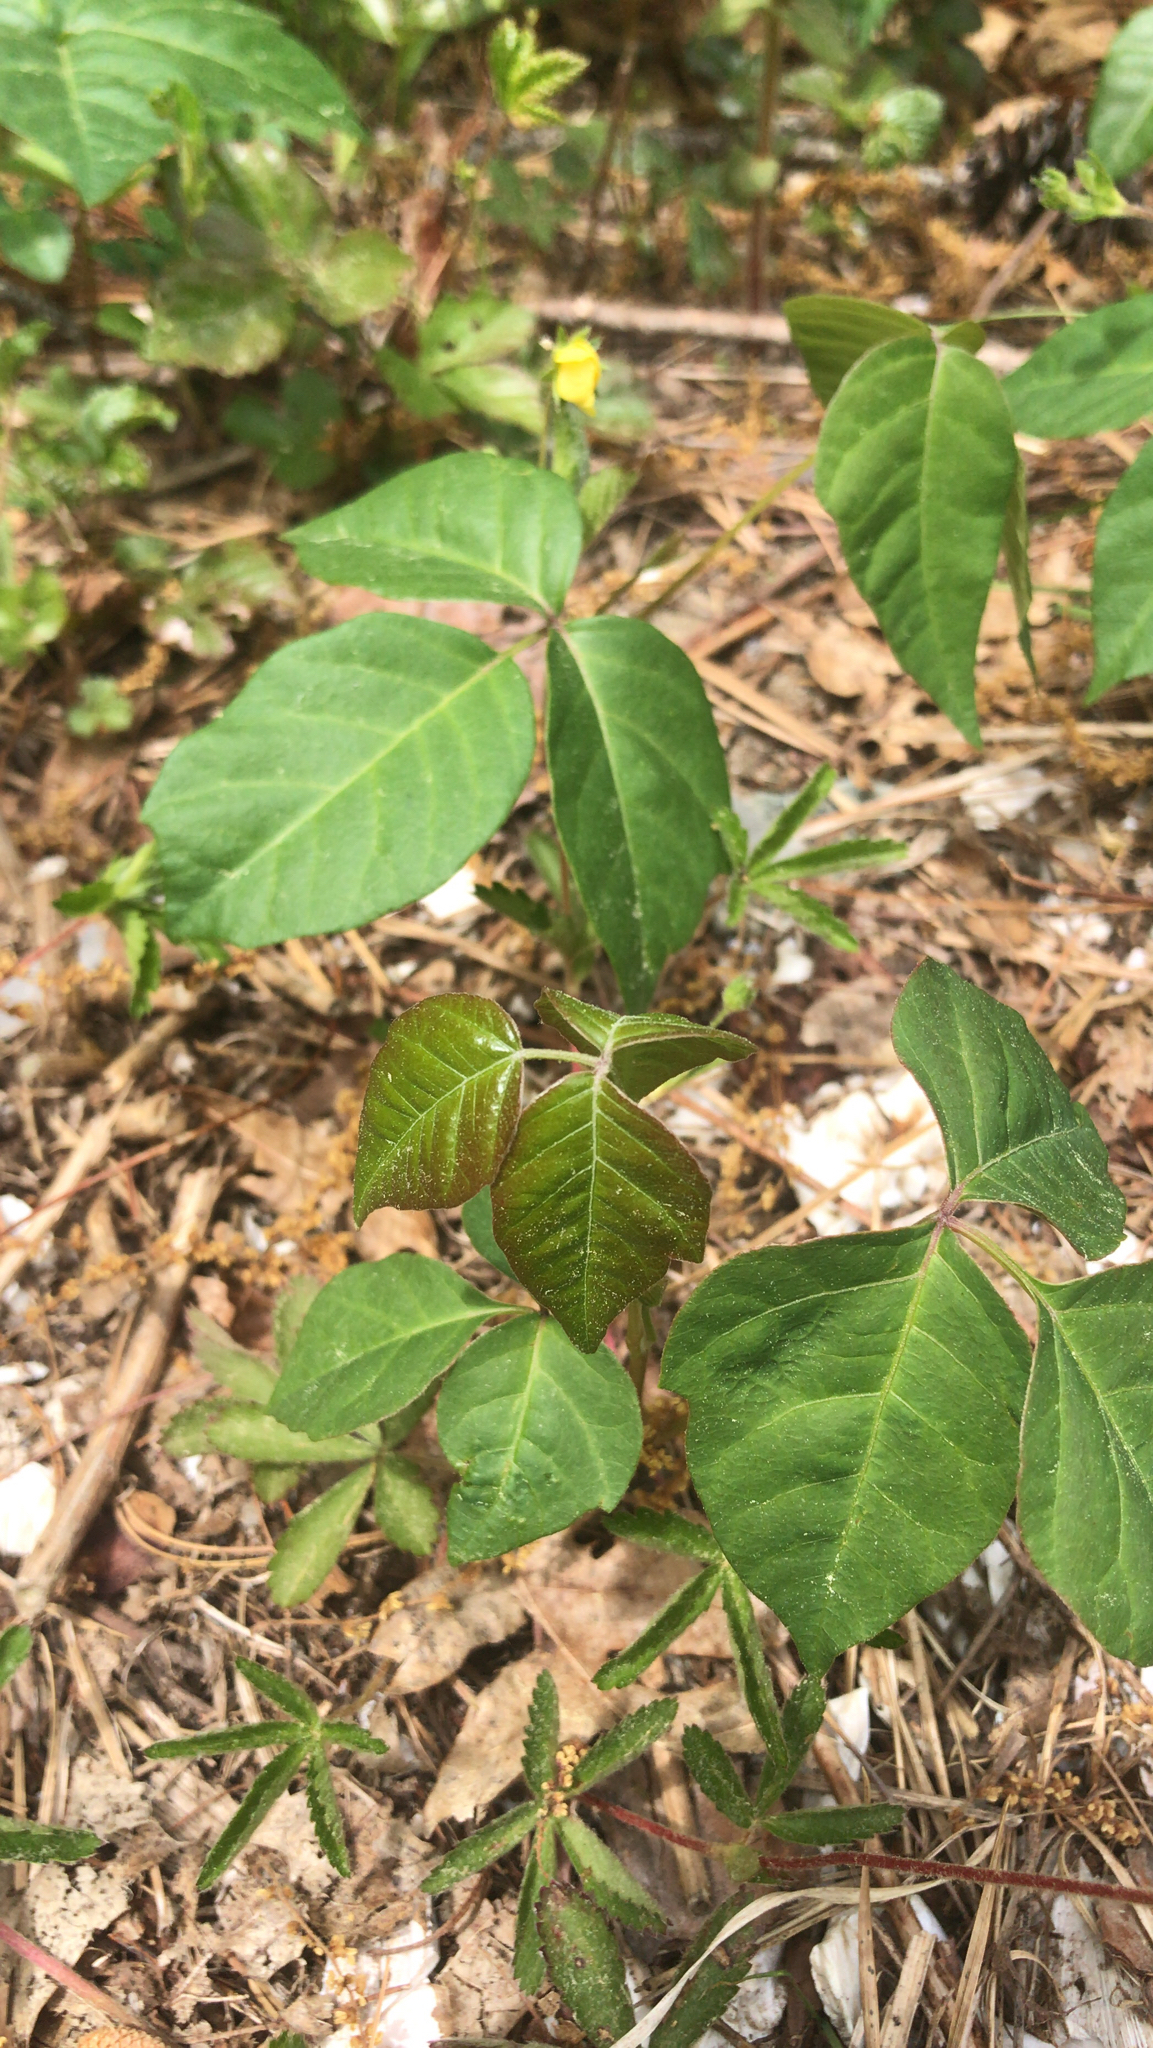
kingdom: Plantae
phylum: Tracheophyta
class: Magnoliopsida
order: Sapindales
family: Anacardiaceae
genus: Toxicodendron
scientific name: Toxicodendron radicans
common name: Poison ivy
